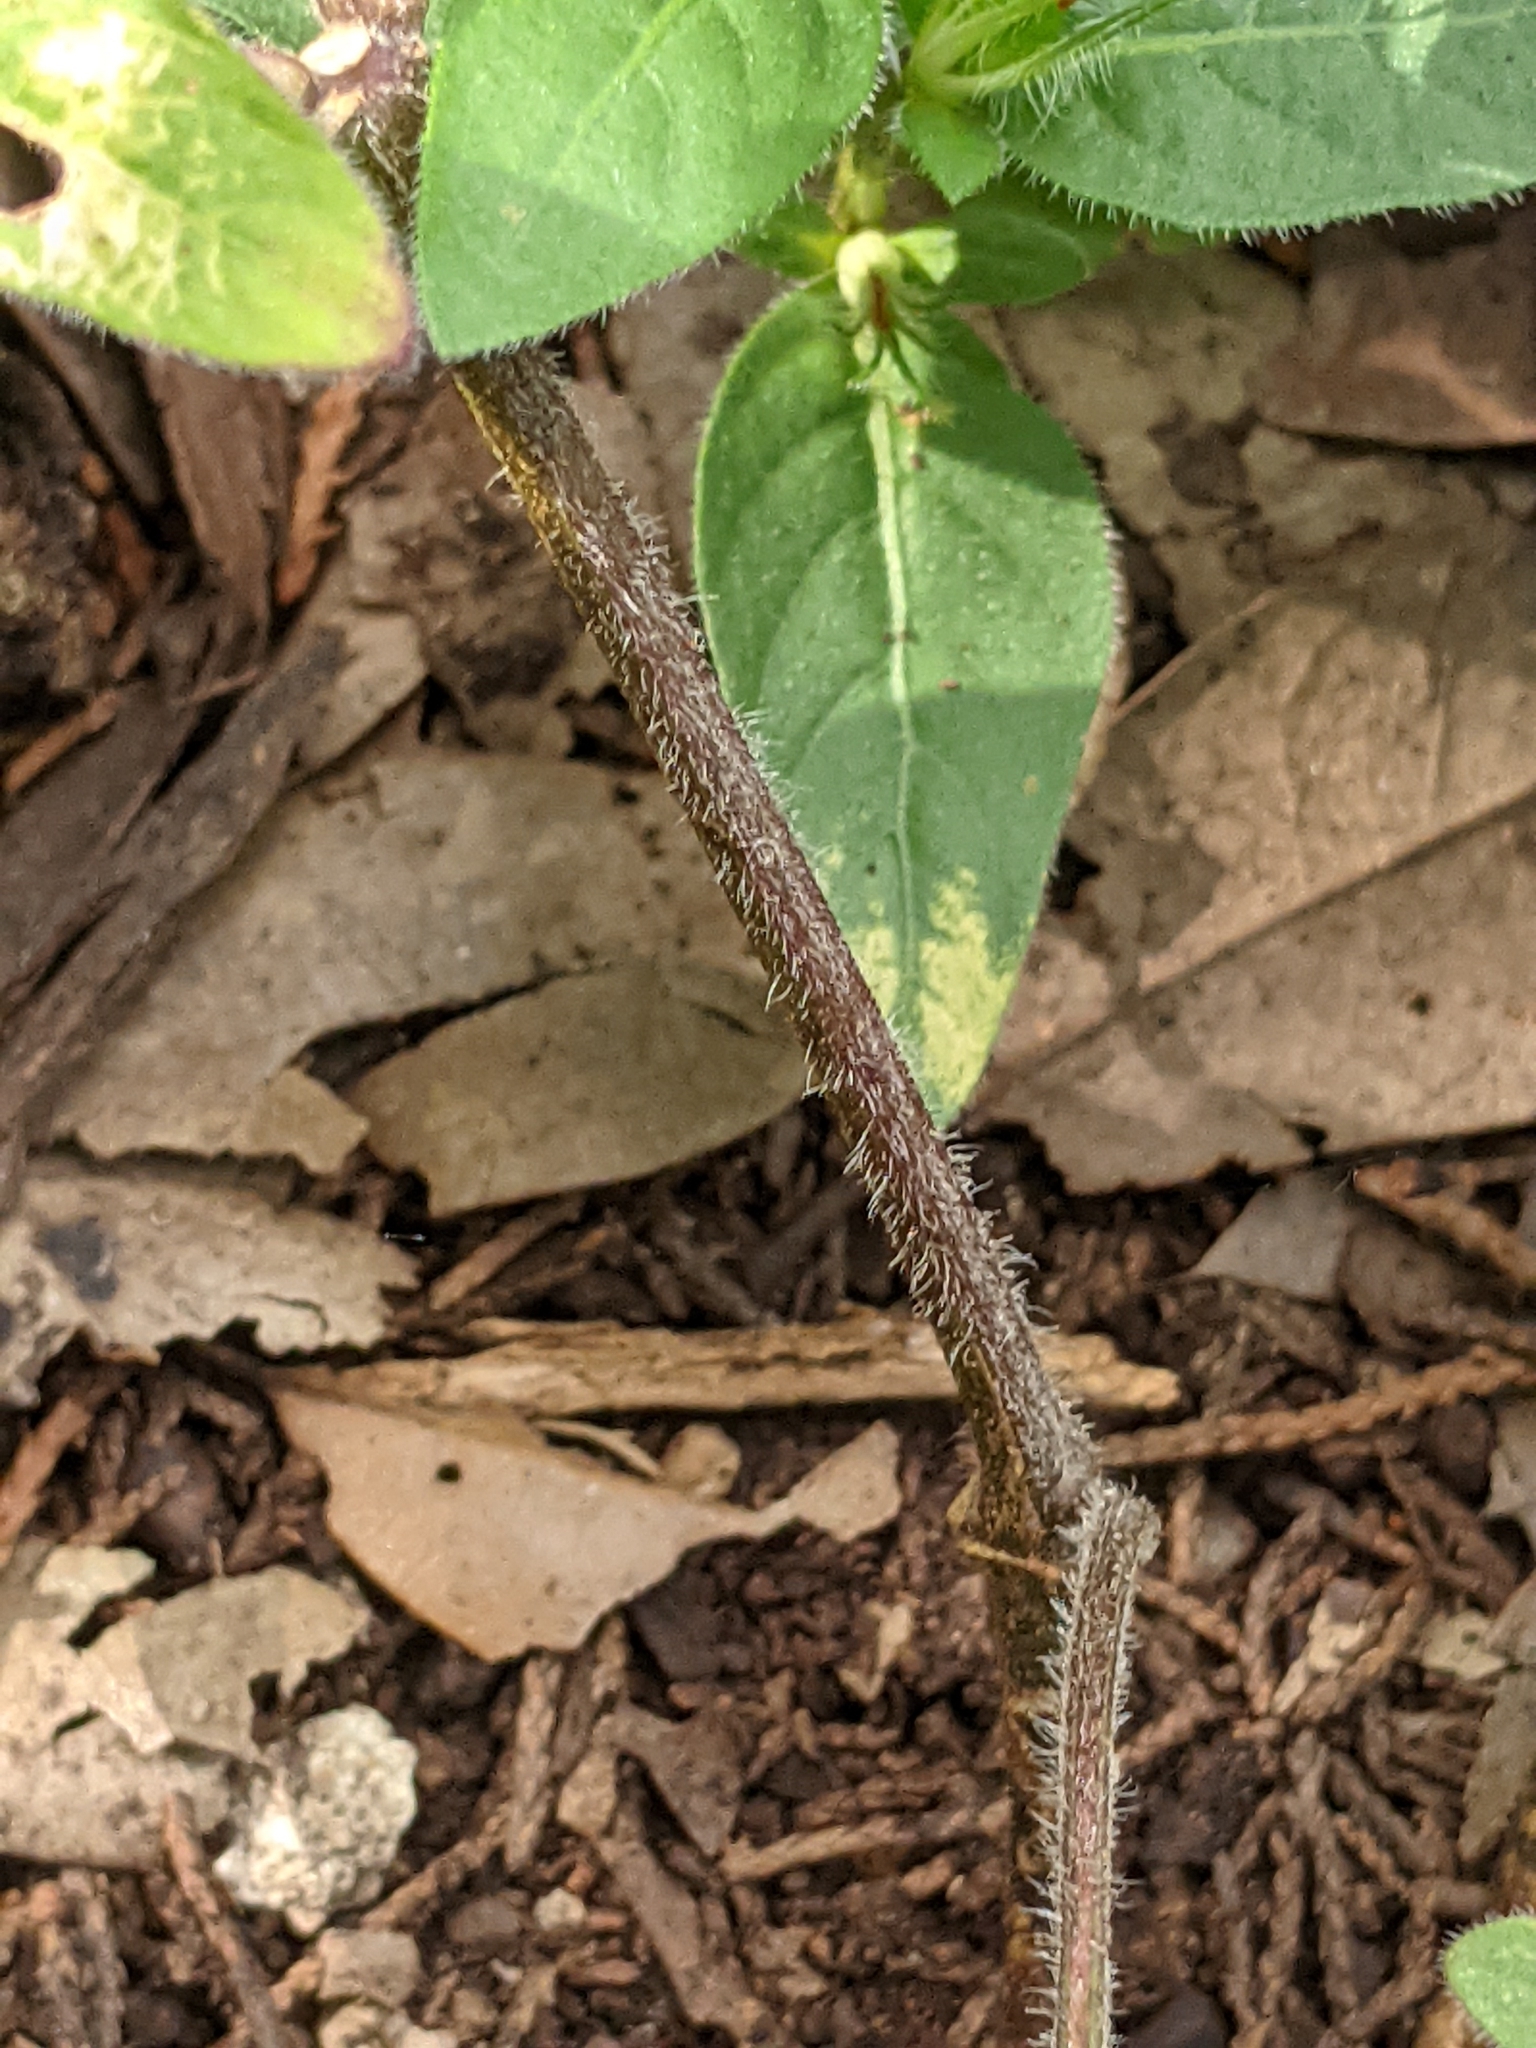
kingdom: Plantae
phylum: Tracheophyta
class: Magnoliopsida
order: Lamiales
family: Acanthaceae
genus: Ruellia
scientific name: Ruellia humilis
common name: Fringe-leaf ruellia
